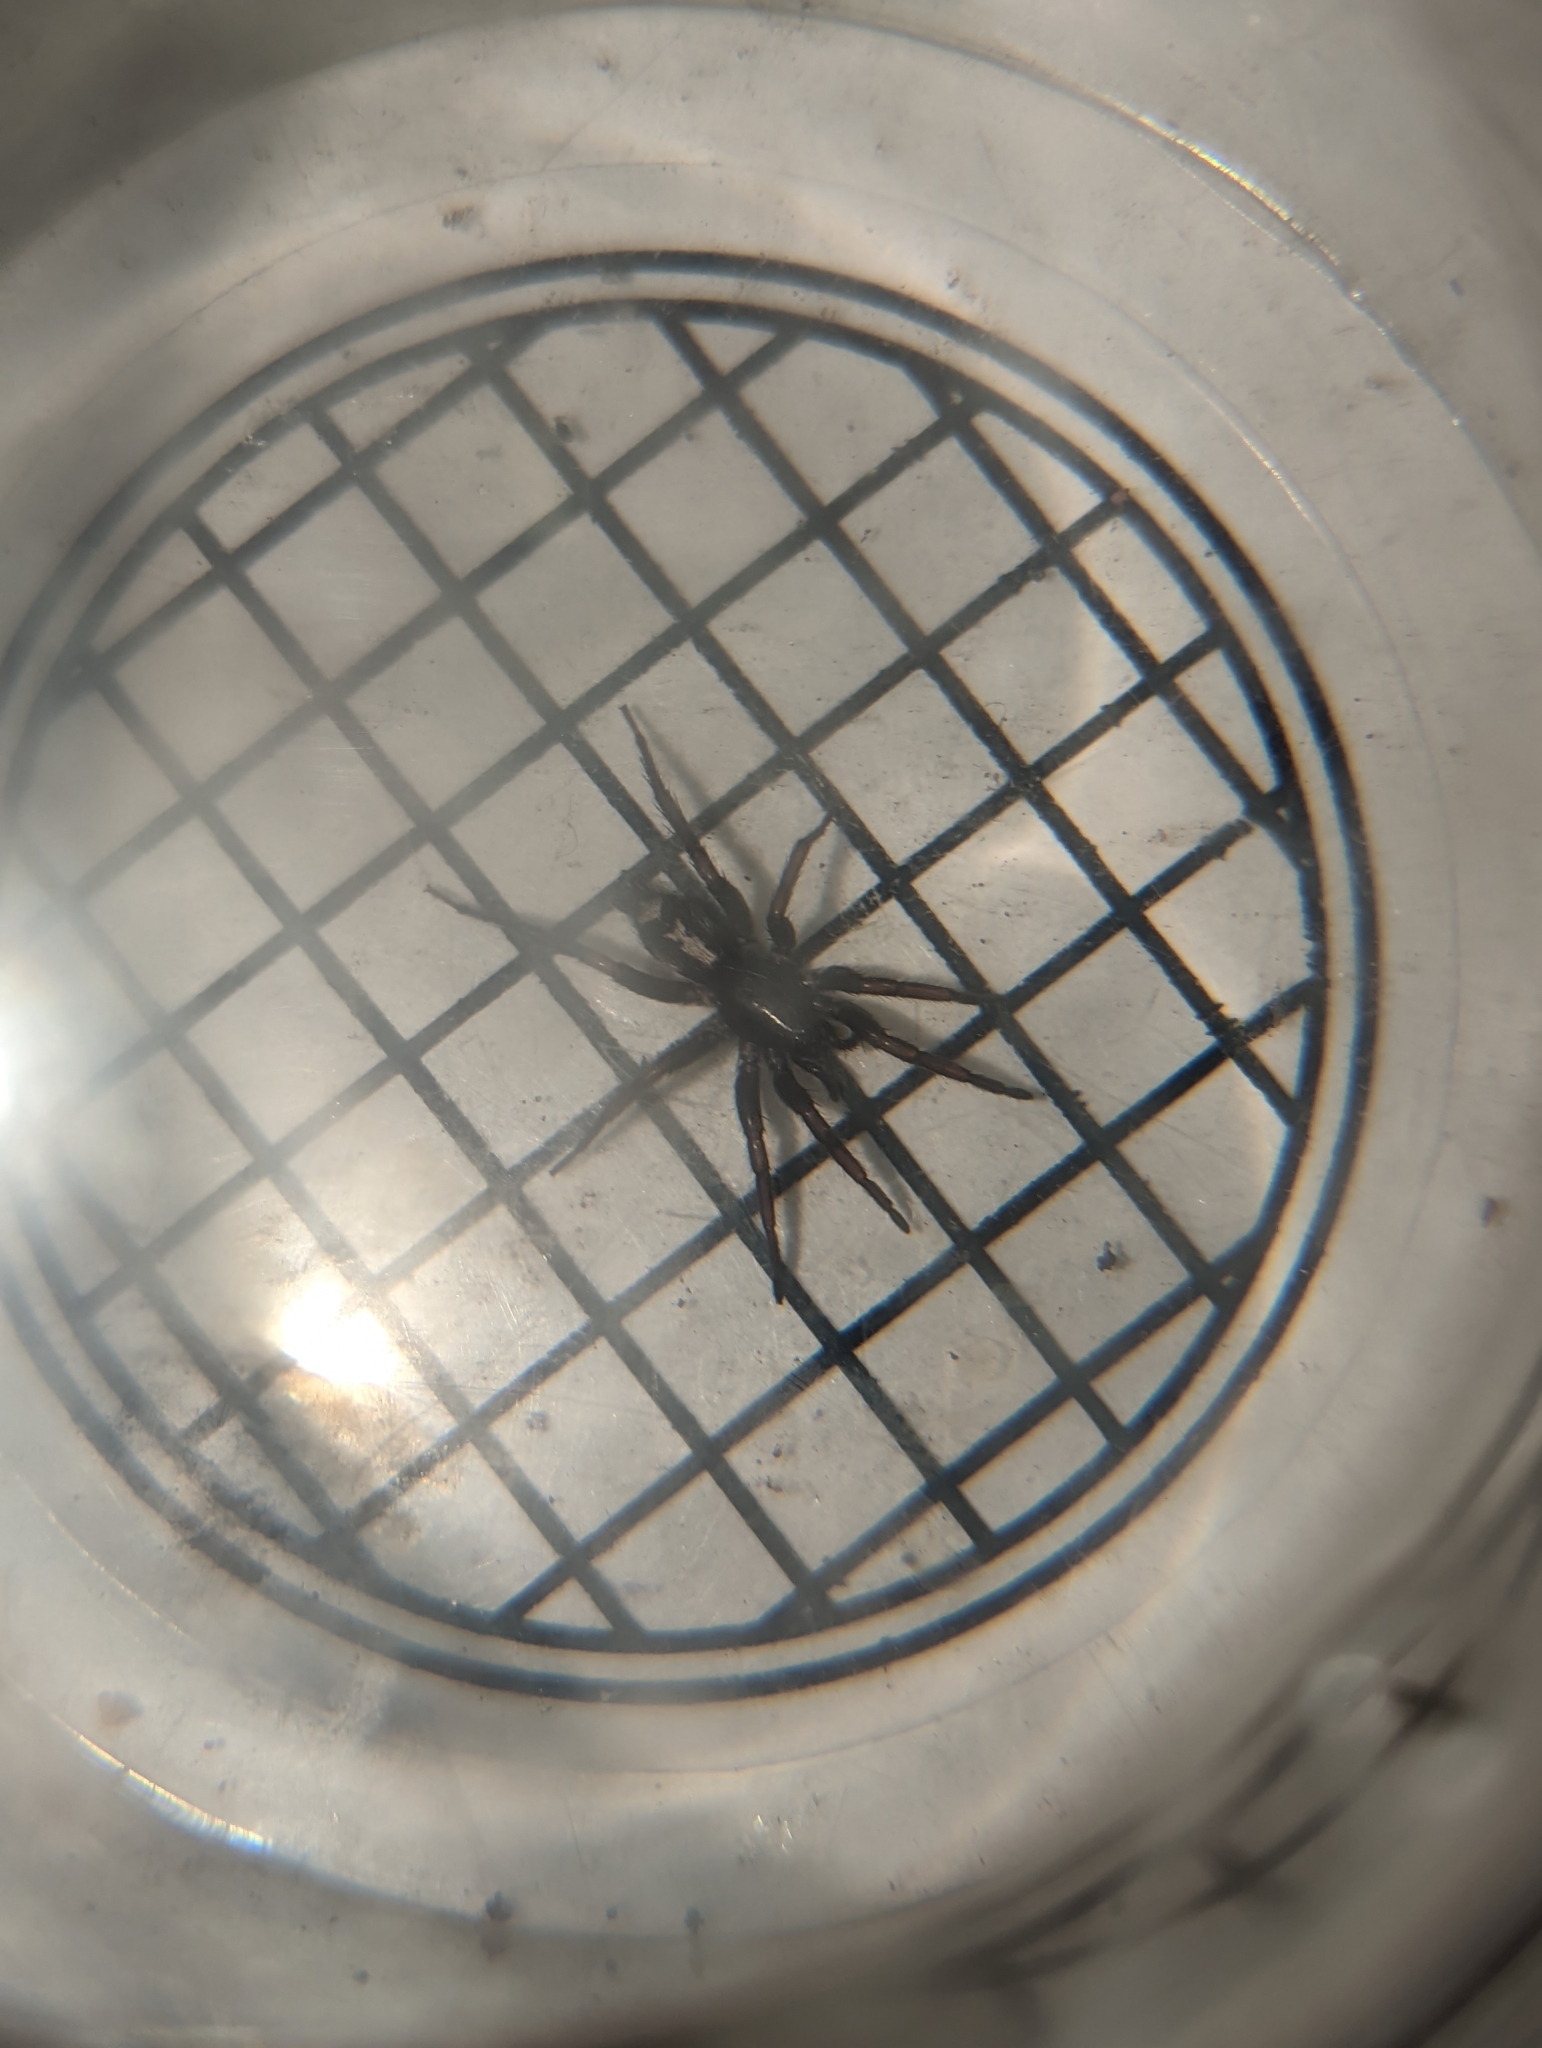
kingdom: Animalia
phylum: Arthropoda
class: Arachnida
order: Araneae
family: Gnaphosidae
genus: Herpyllus
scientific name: Herpyllus ecclesiasticus
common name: Eastern parson spider
